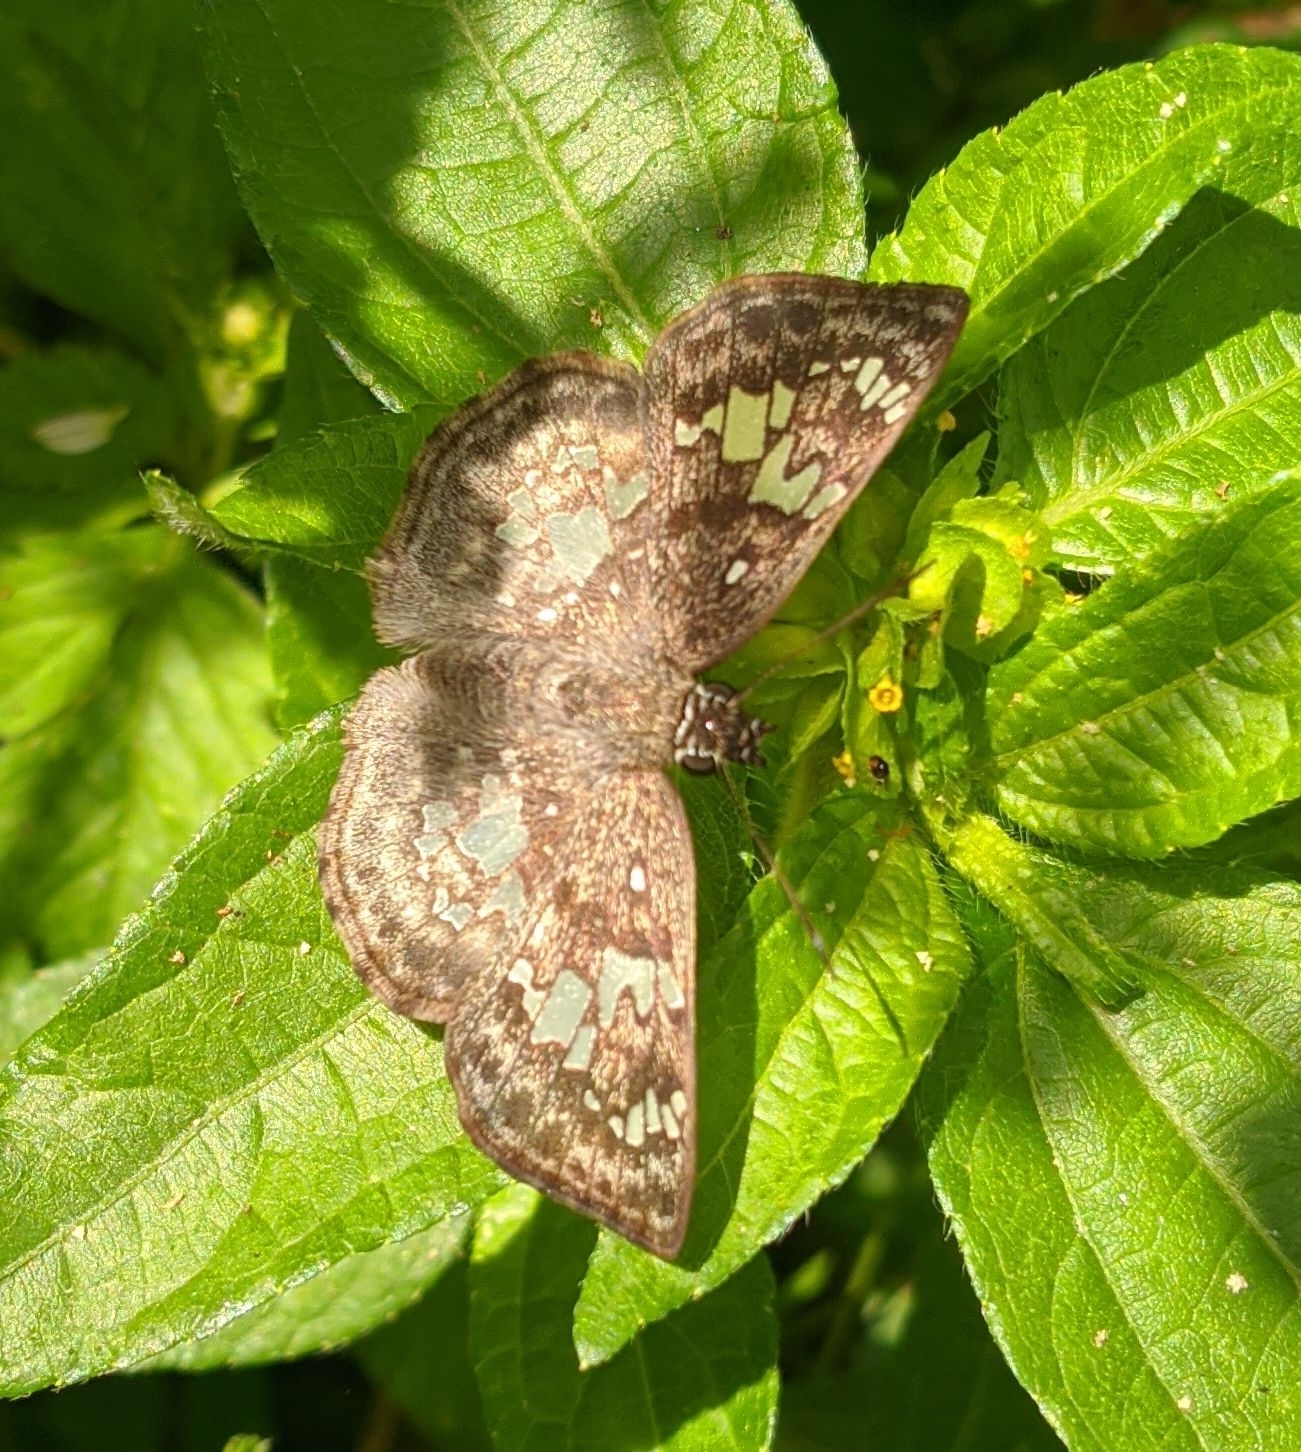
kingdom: Animalia
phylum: Arthropoda
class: Insecta
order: Lepidoptera
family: Hesperiidae
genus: Xenophanes
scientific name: Xenophanes tryxus
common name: Glassy-winged skipper
